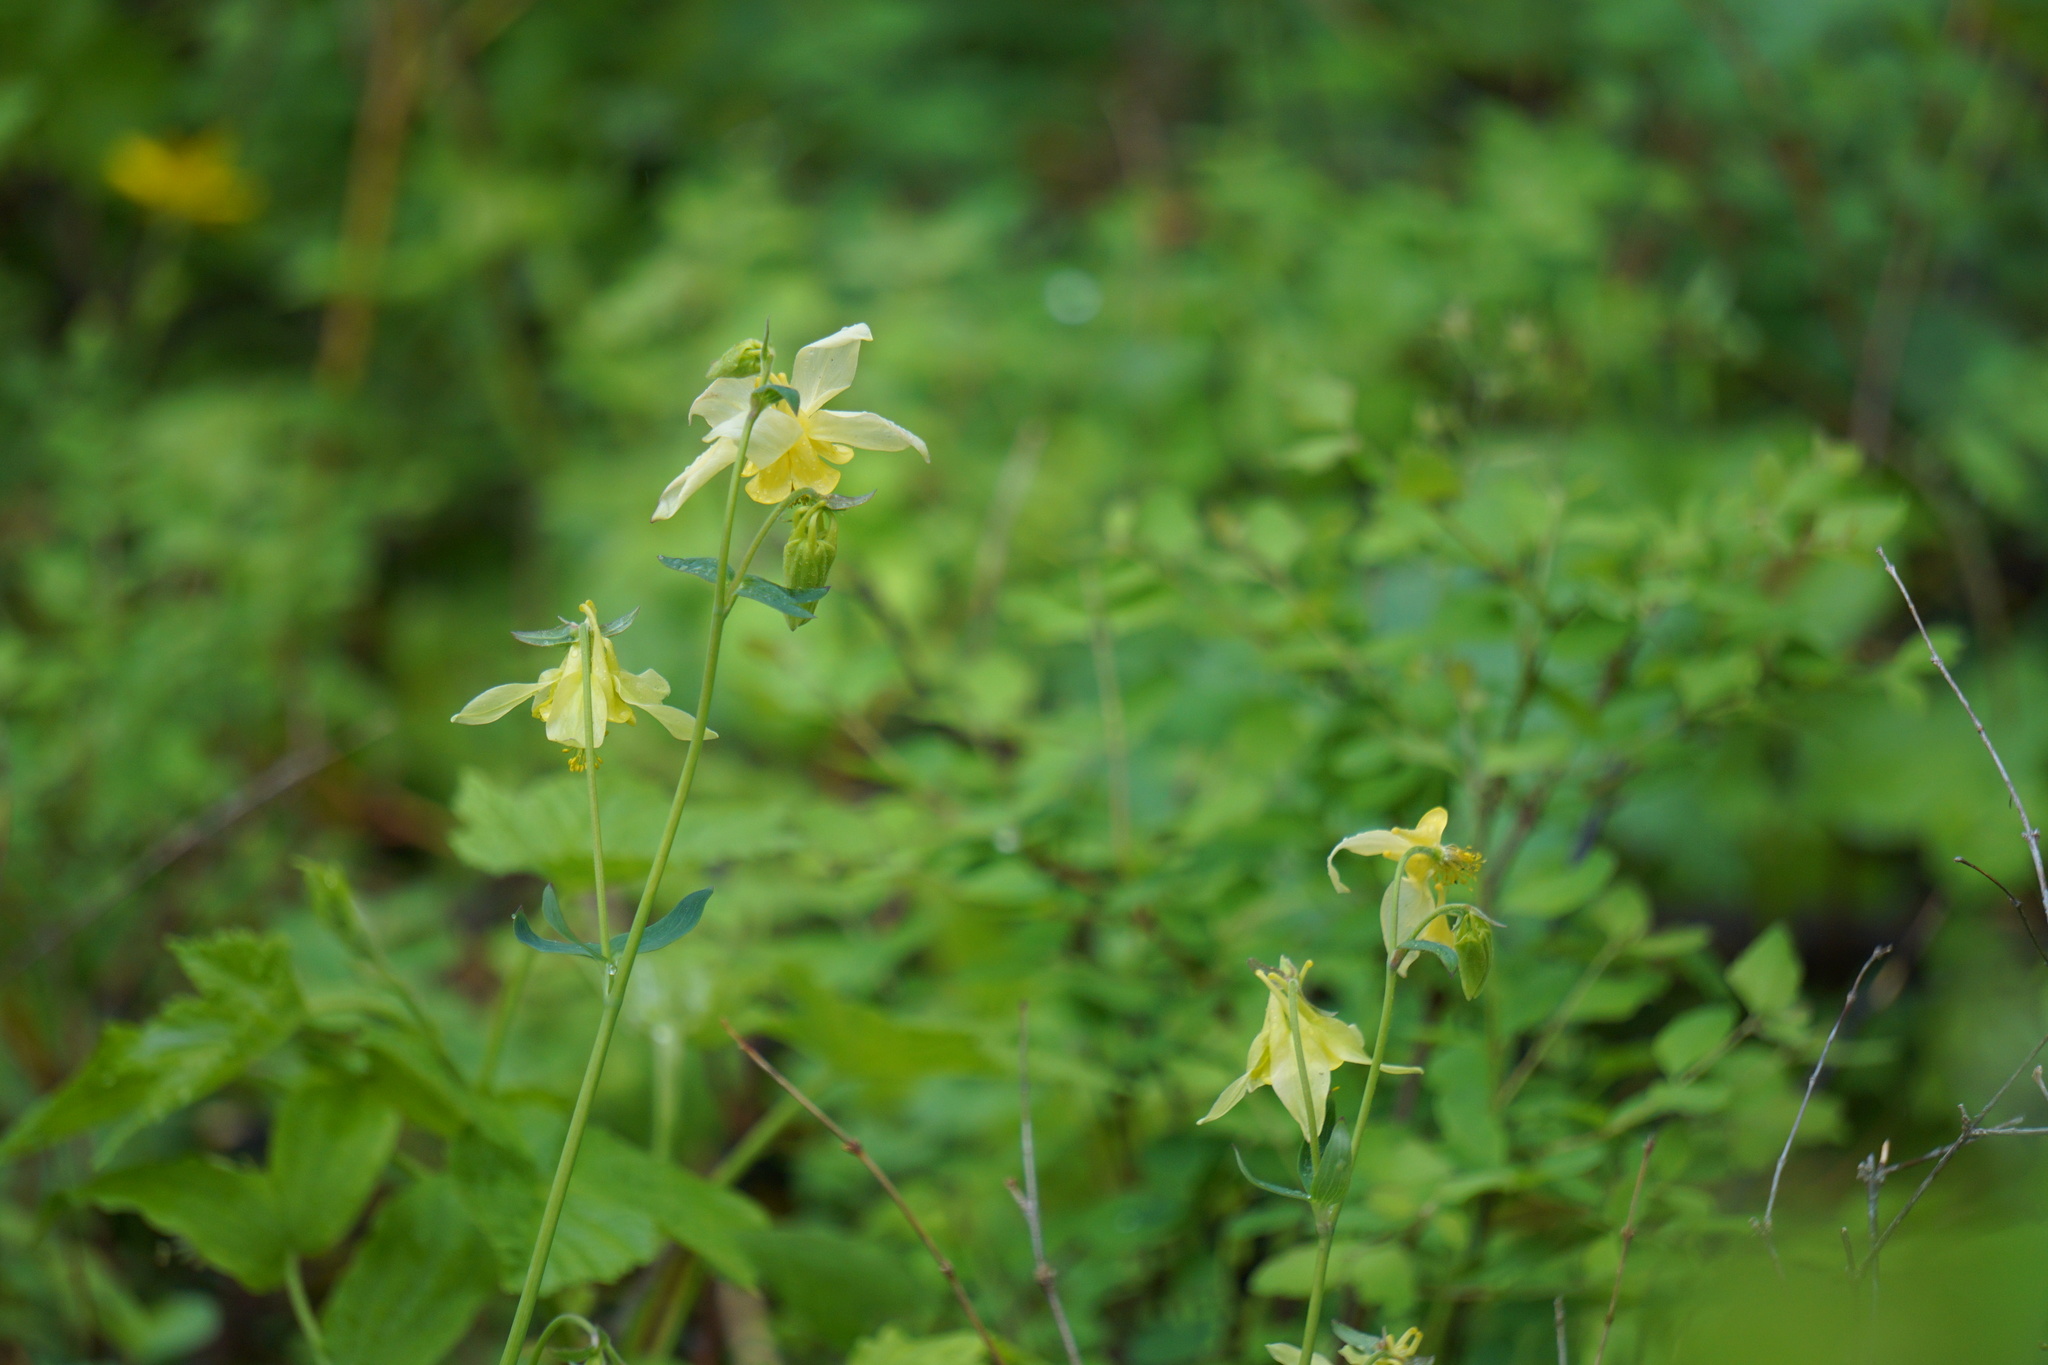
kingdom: Plantae
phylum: Tracheophyta
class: Magnoliopsida
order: Ranunculales
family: Ranunculaceae
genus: Aquilegia
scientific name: Aquilegia flavescens
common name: Yellow columbine
